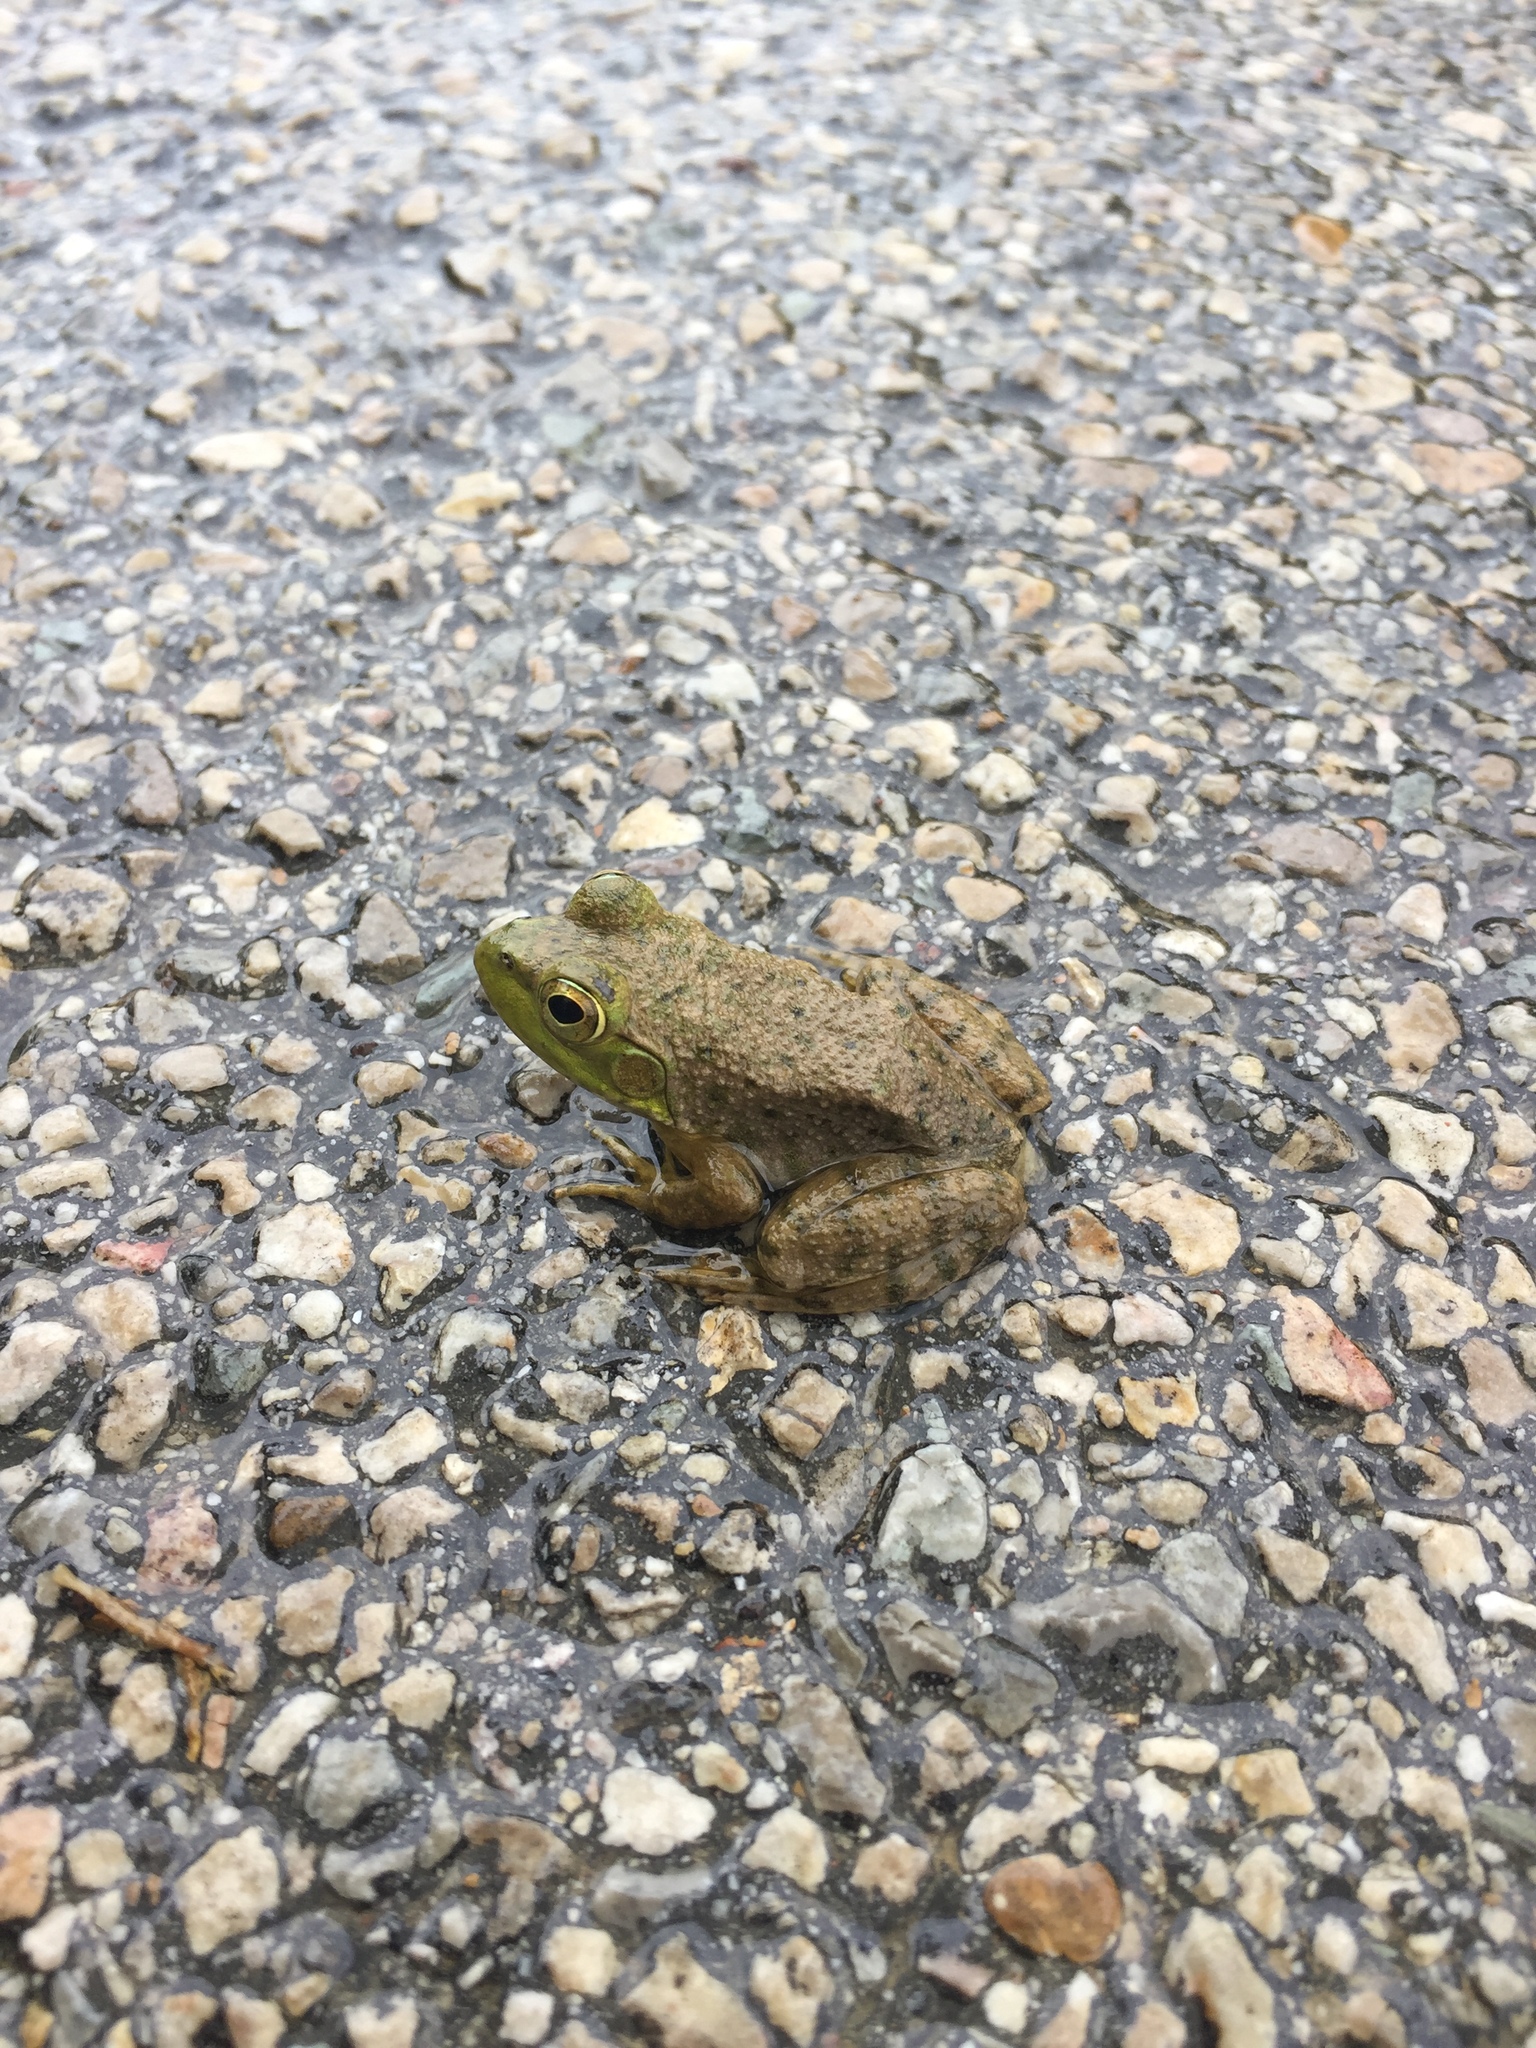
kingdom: Animalia
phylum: Chordata
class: Amphibia
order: Anura
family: Ranidae
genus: Lithobates
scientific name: Lithobates catesbeianus
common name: American bullfrog
